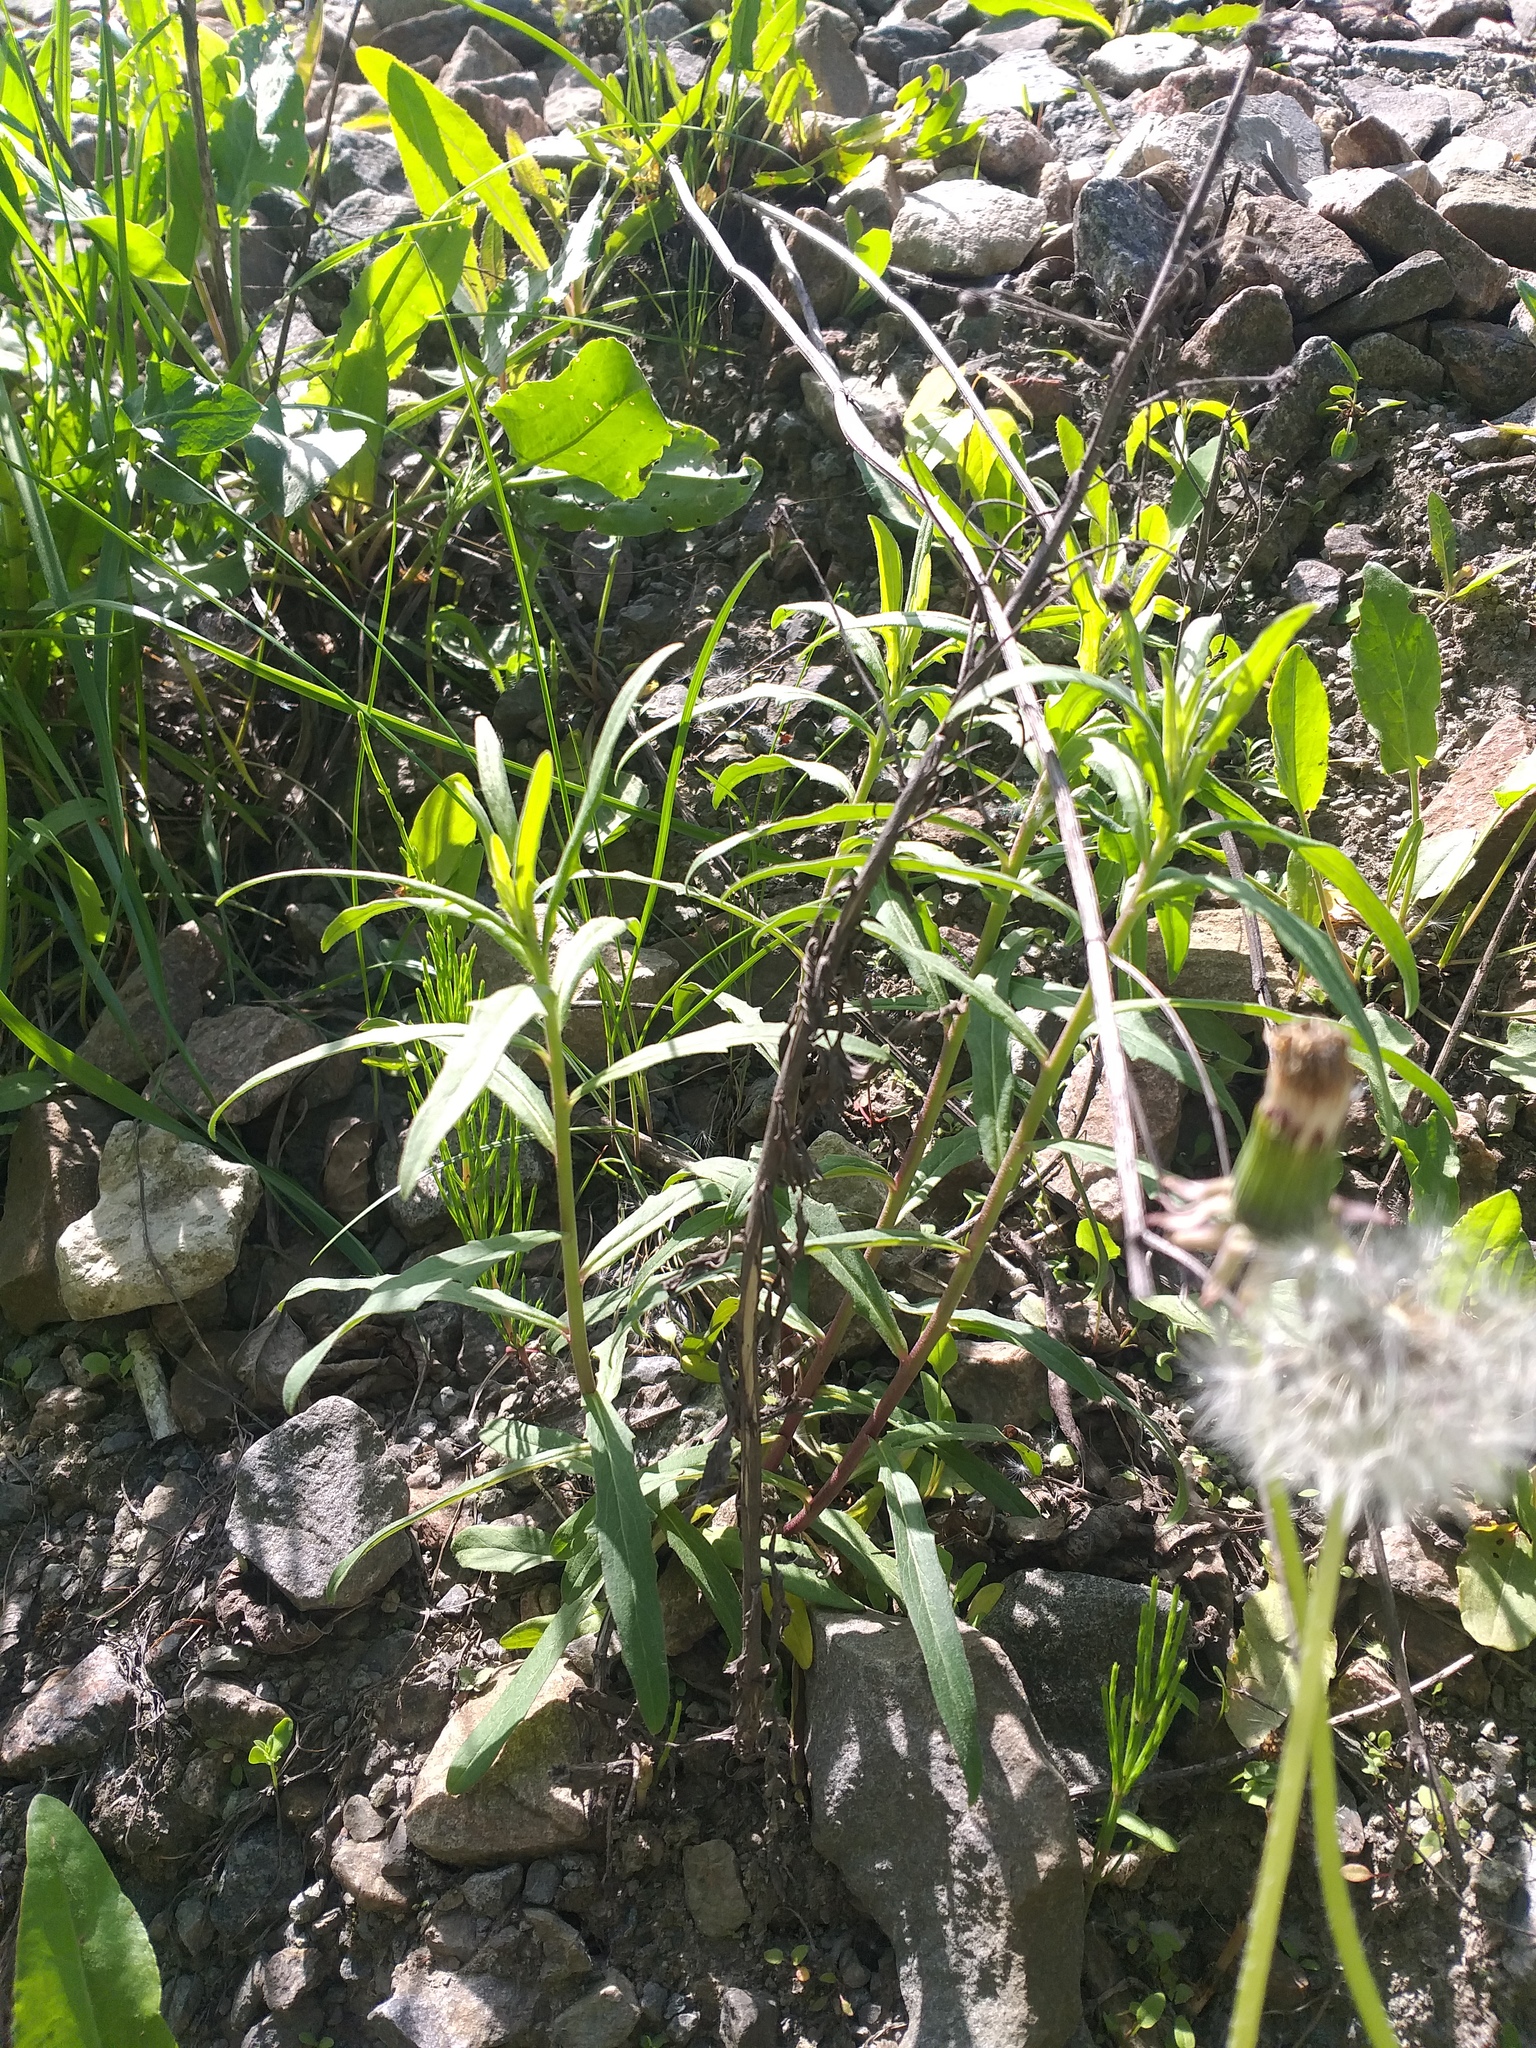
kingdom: Plantae
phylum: Tracheophyta
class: Magnoliopsida
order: Asterales
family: Asteraceae
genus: Hieracium
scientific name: Hieracium umbellatum
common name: Northern hawkweed
